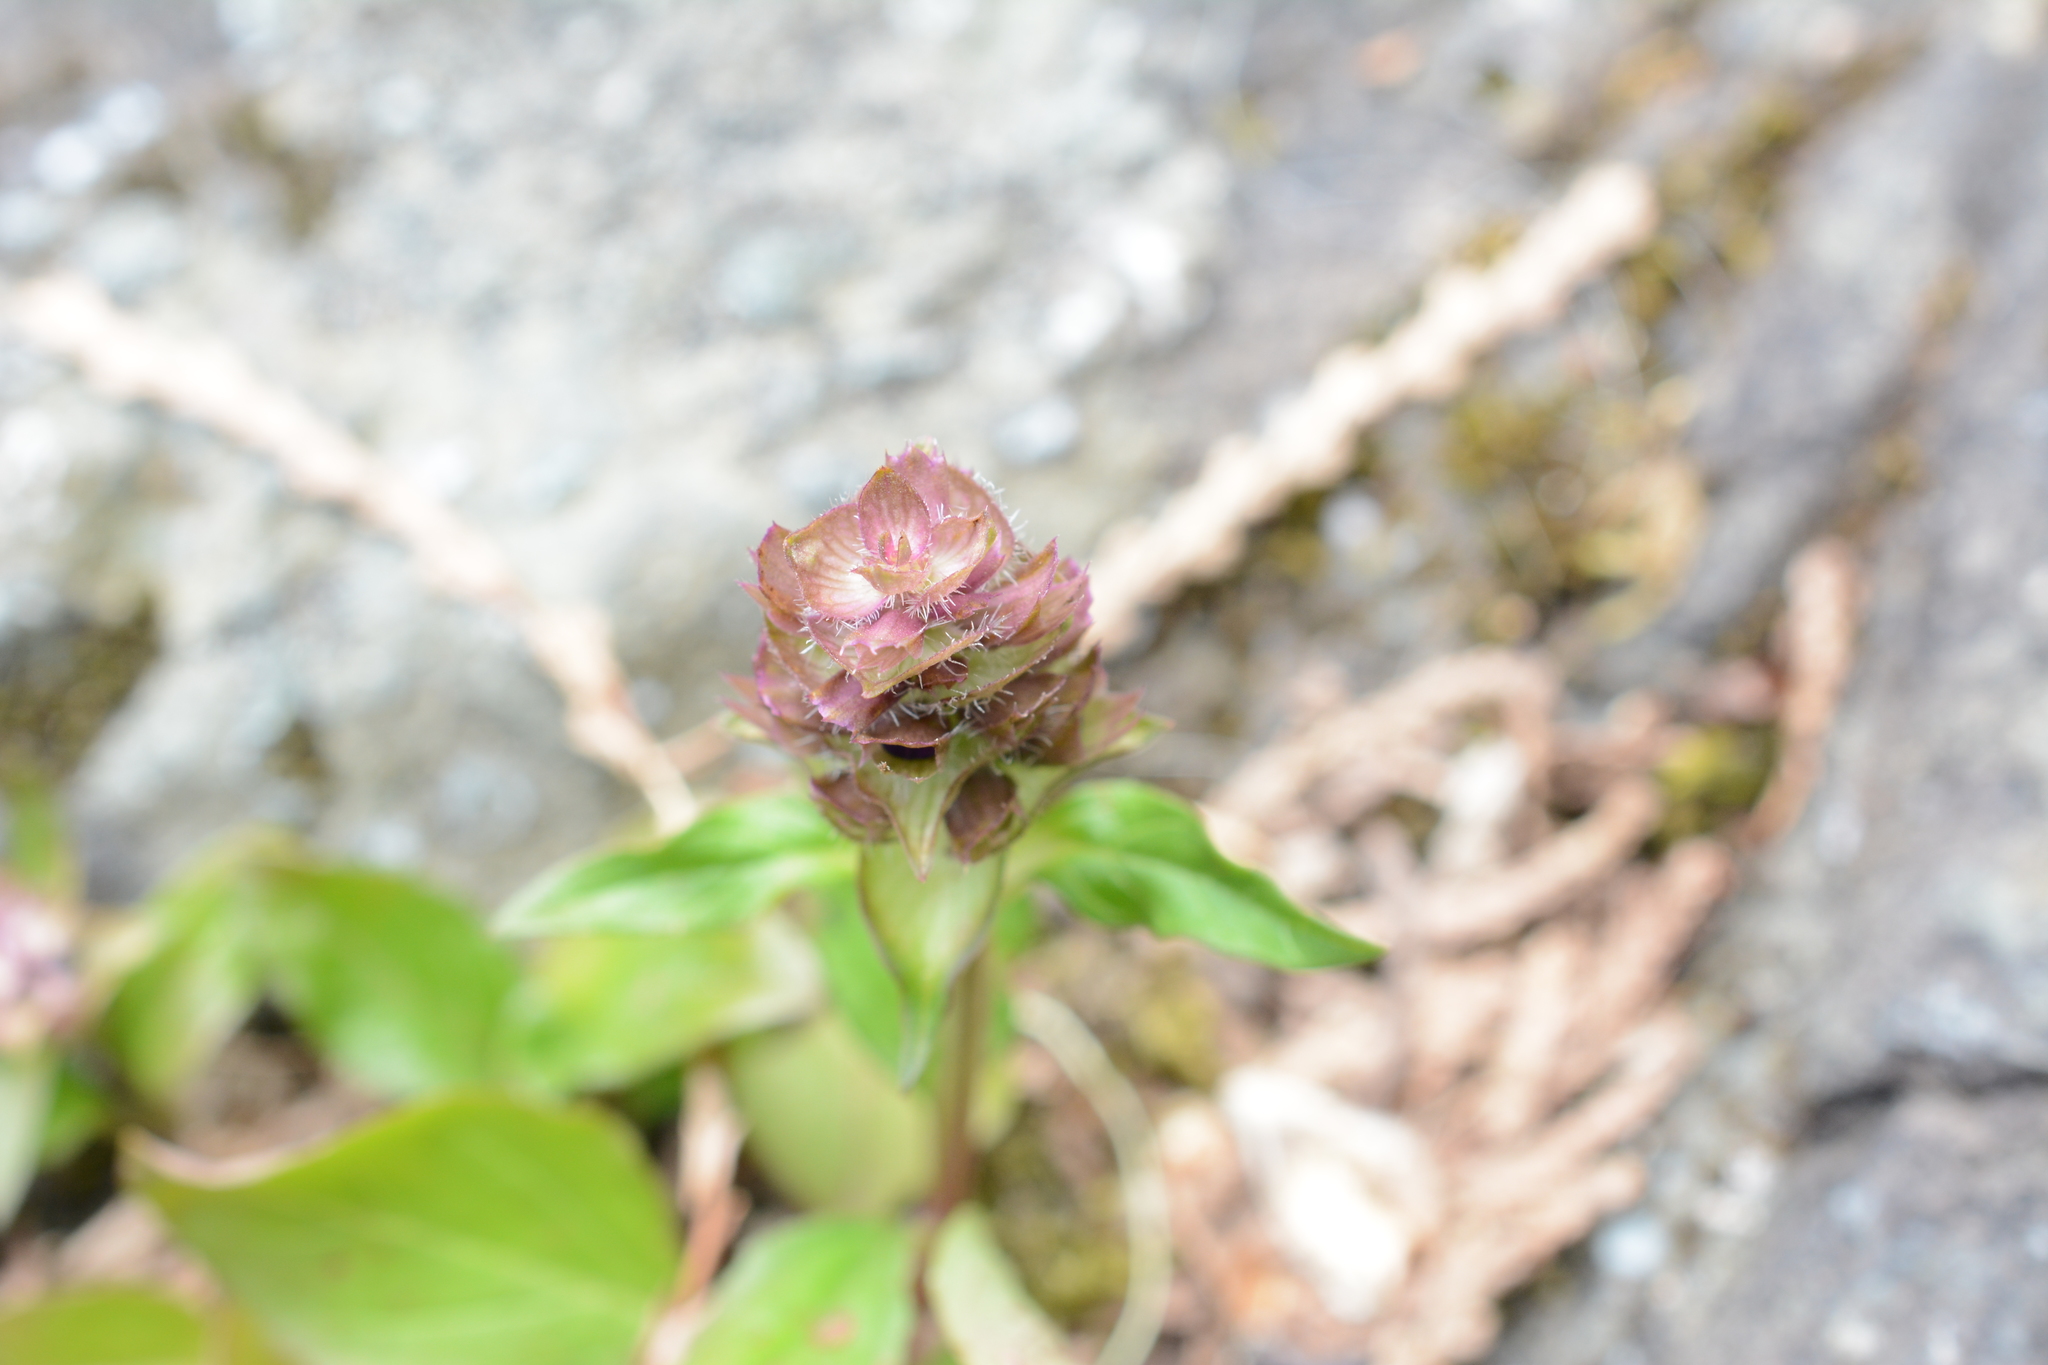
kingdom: Plantae
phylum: Tracheophyta
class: Magnoliopsida
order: Lamiales
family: Lamiaceae
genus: Prunella
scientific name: Prunella vulgaris
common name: Heal-all
